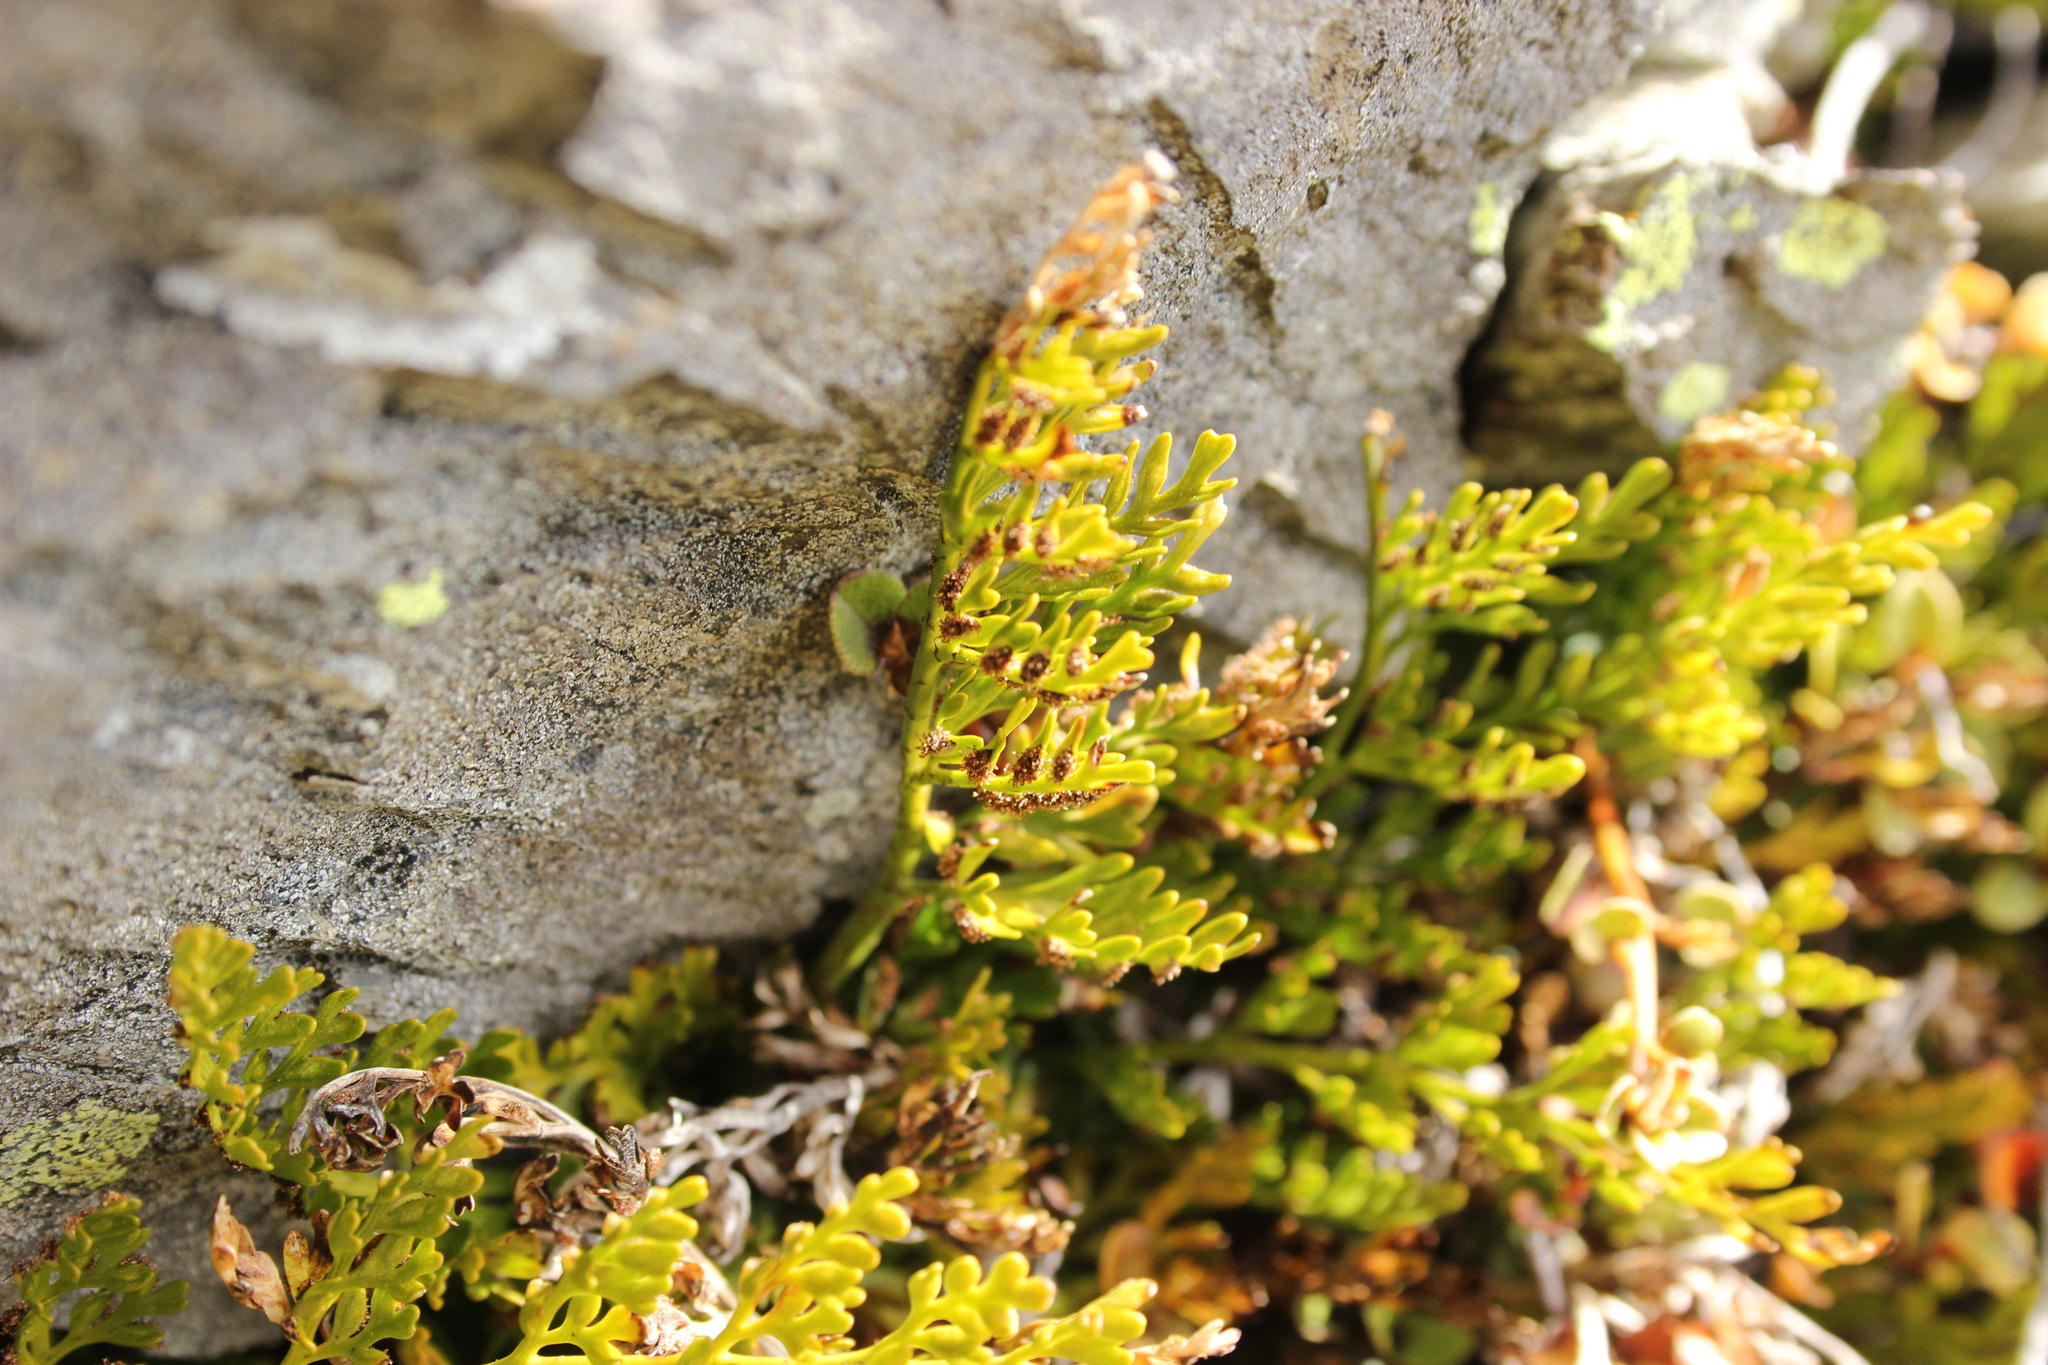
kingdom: Plantae
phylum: Tracheophyta
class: Polypodiopsida
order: Polypodiales
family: Aspleniaceae
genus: Asplenium
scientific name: Asplenium richardii
